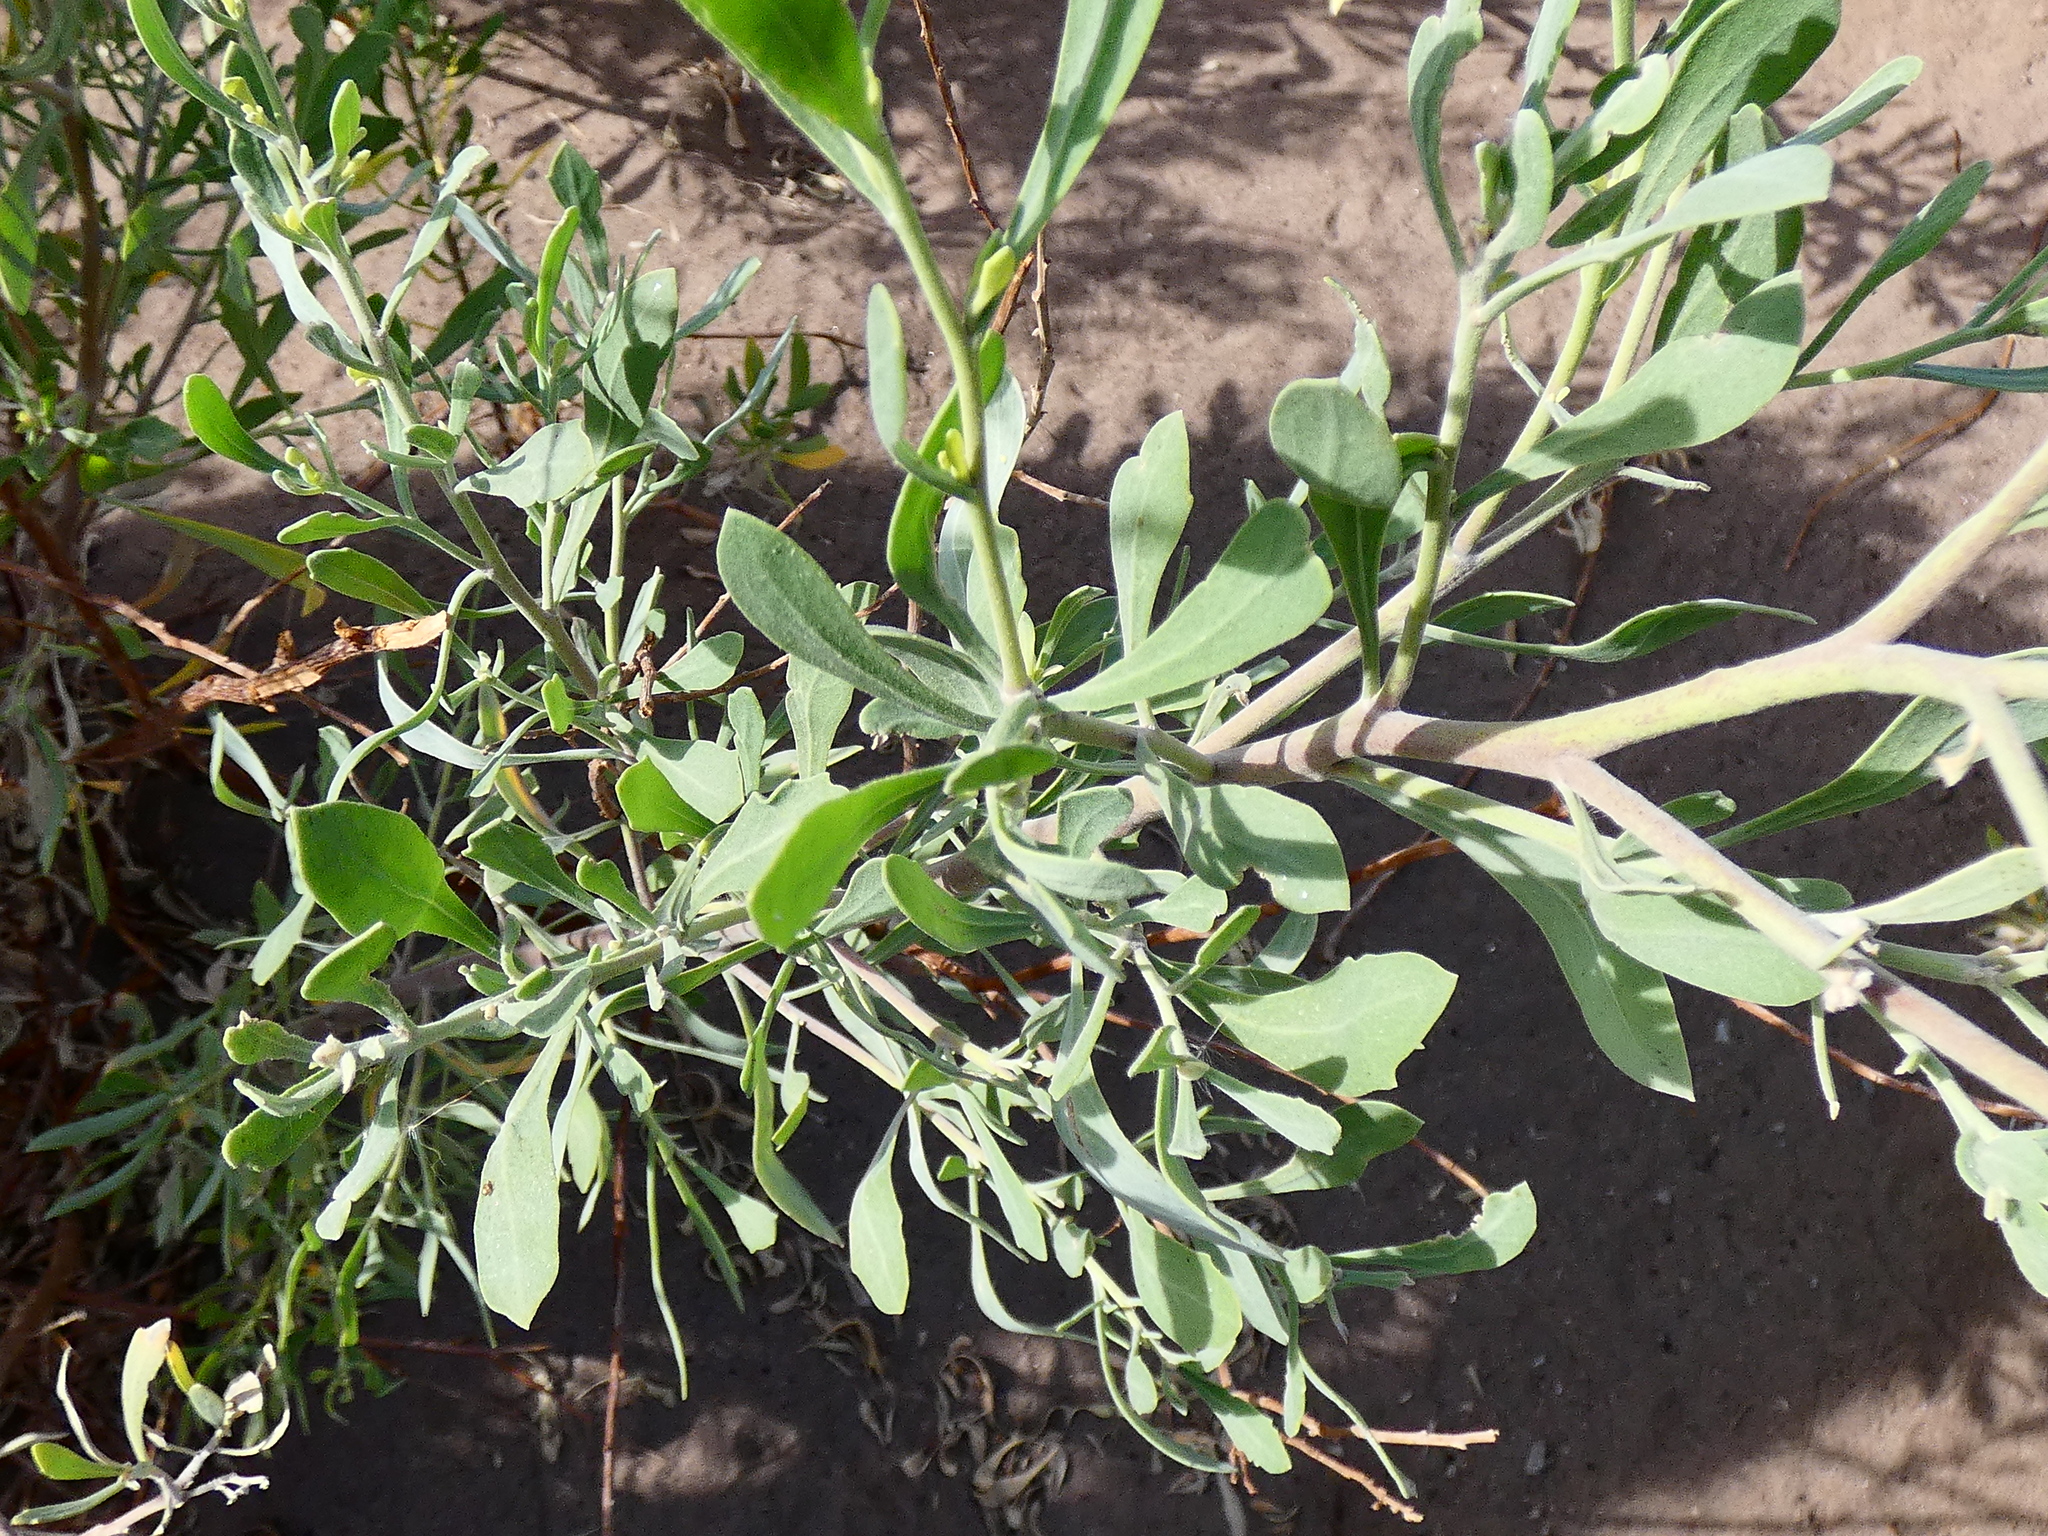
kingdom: Plantae
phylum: Tracheophyta
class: Magnoliopsida
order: Asterales
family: Asteraceae
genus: Tessaria
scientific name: Tessaria absinthioides
